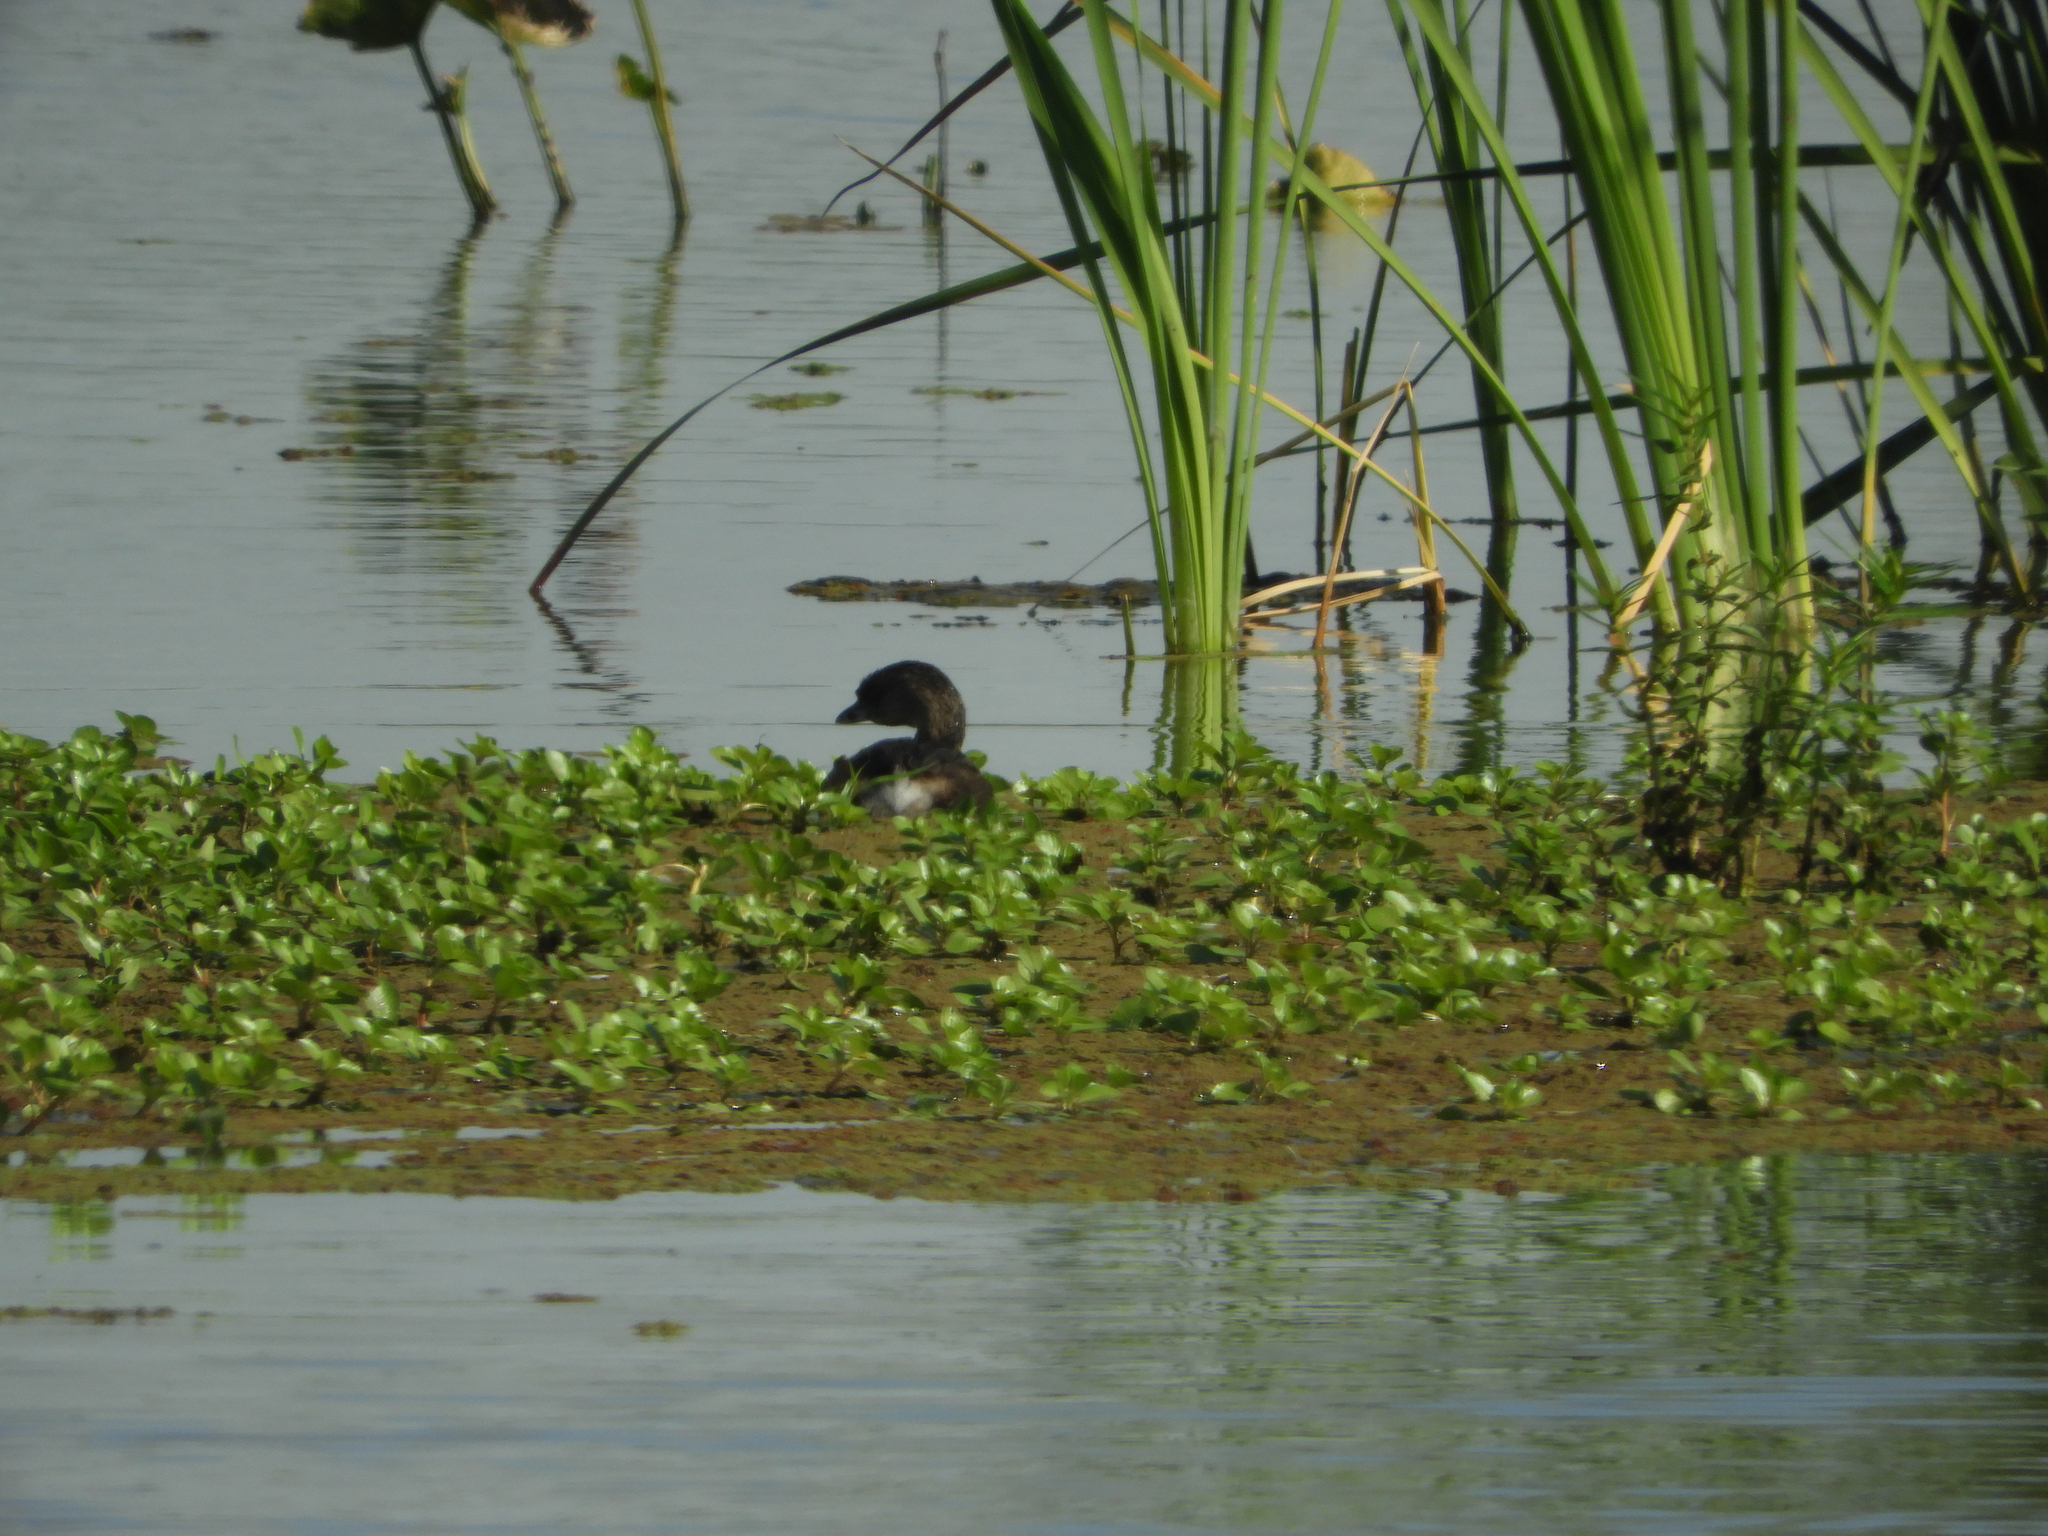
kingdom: Animalia
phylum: Chordata
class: Aves
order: Podicipediformes
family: Podicipedidae
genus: Podilymbus
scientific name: Podilymbus podiceps
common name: Pied-billed grebe
